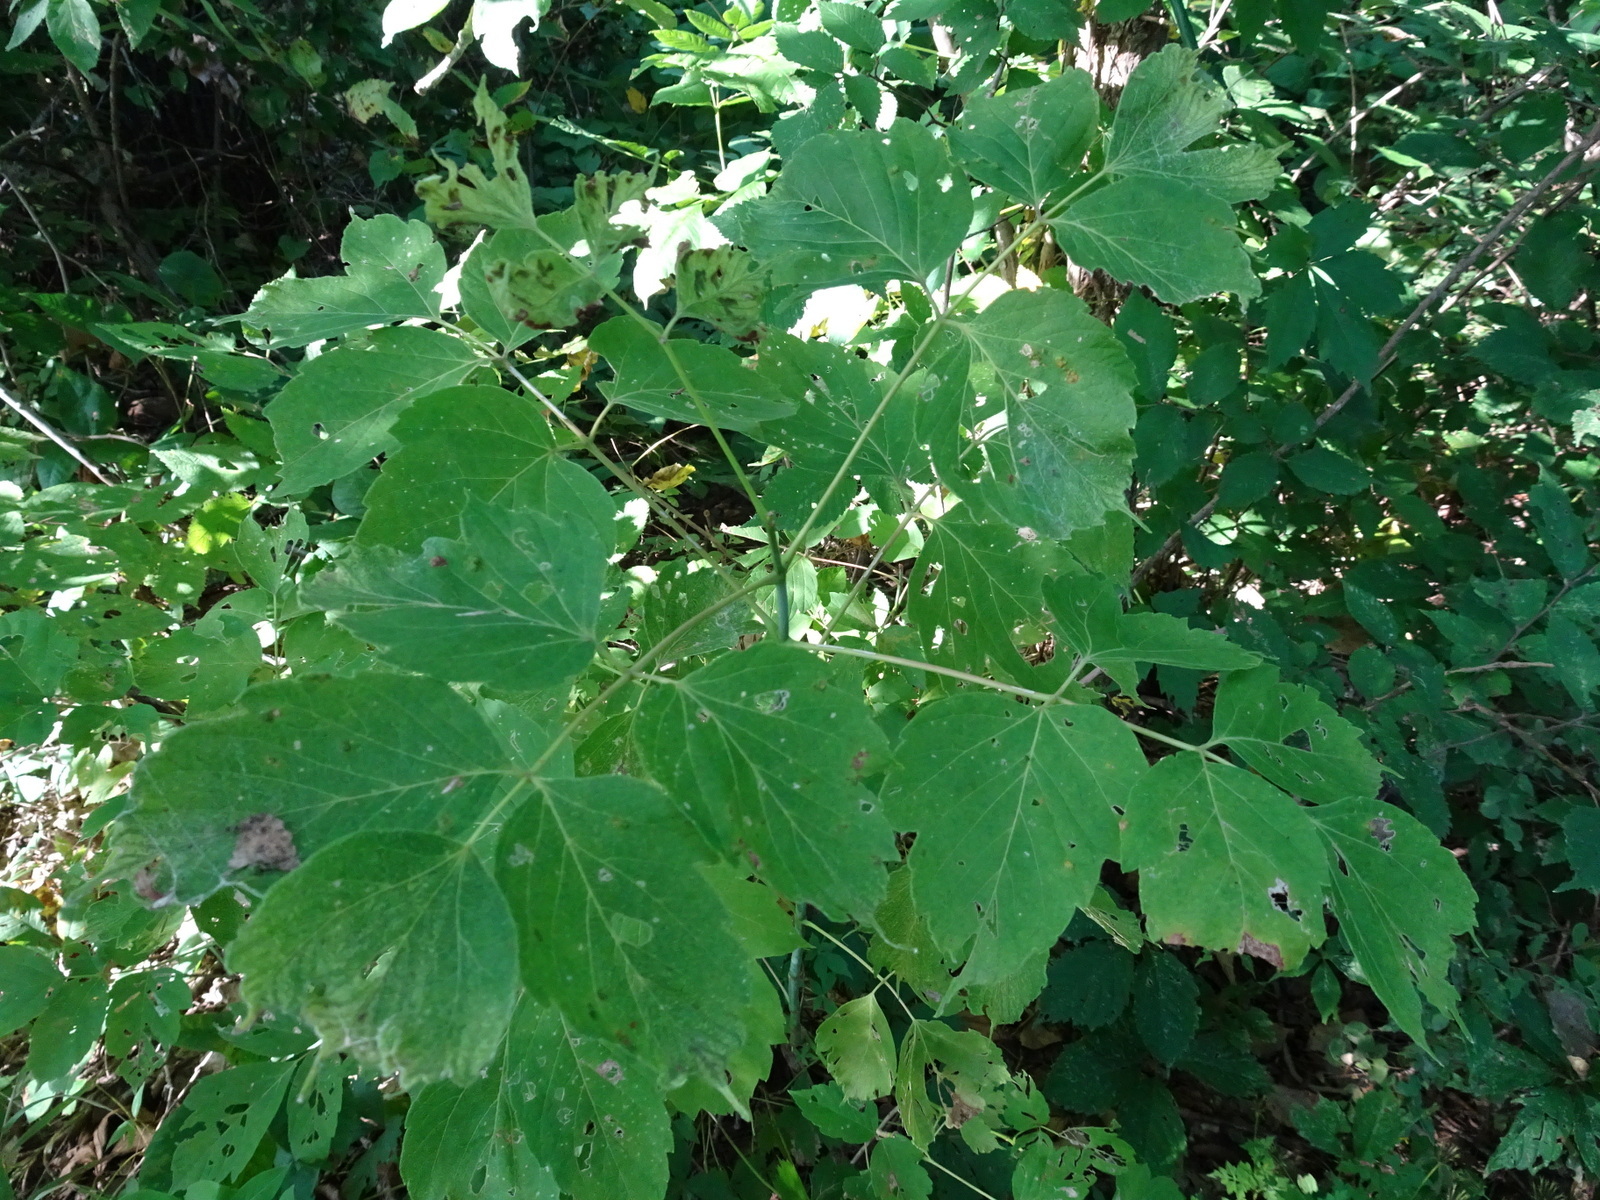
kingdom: Plantae
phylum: Tracheophyta
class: Magnoliopsida
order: Sapindales
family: Sapindaceae
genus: Acer
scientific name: Acer negundo
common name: Ashleaf maple
